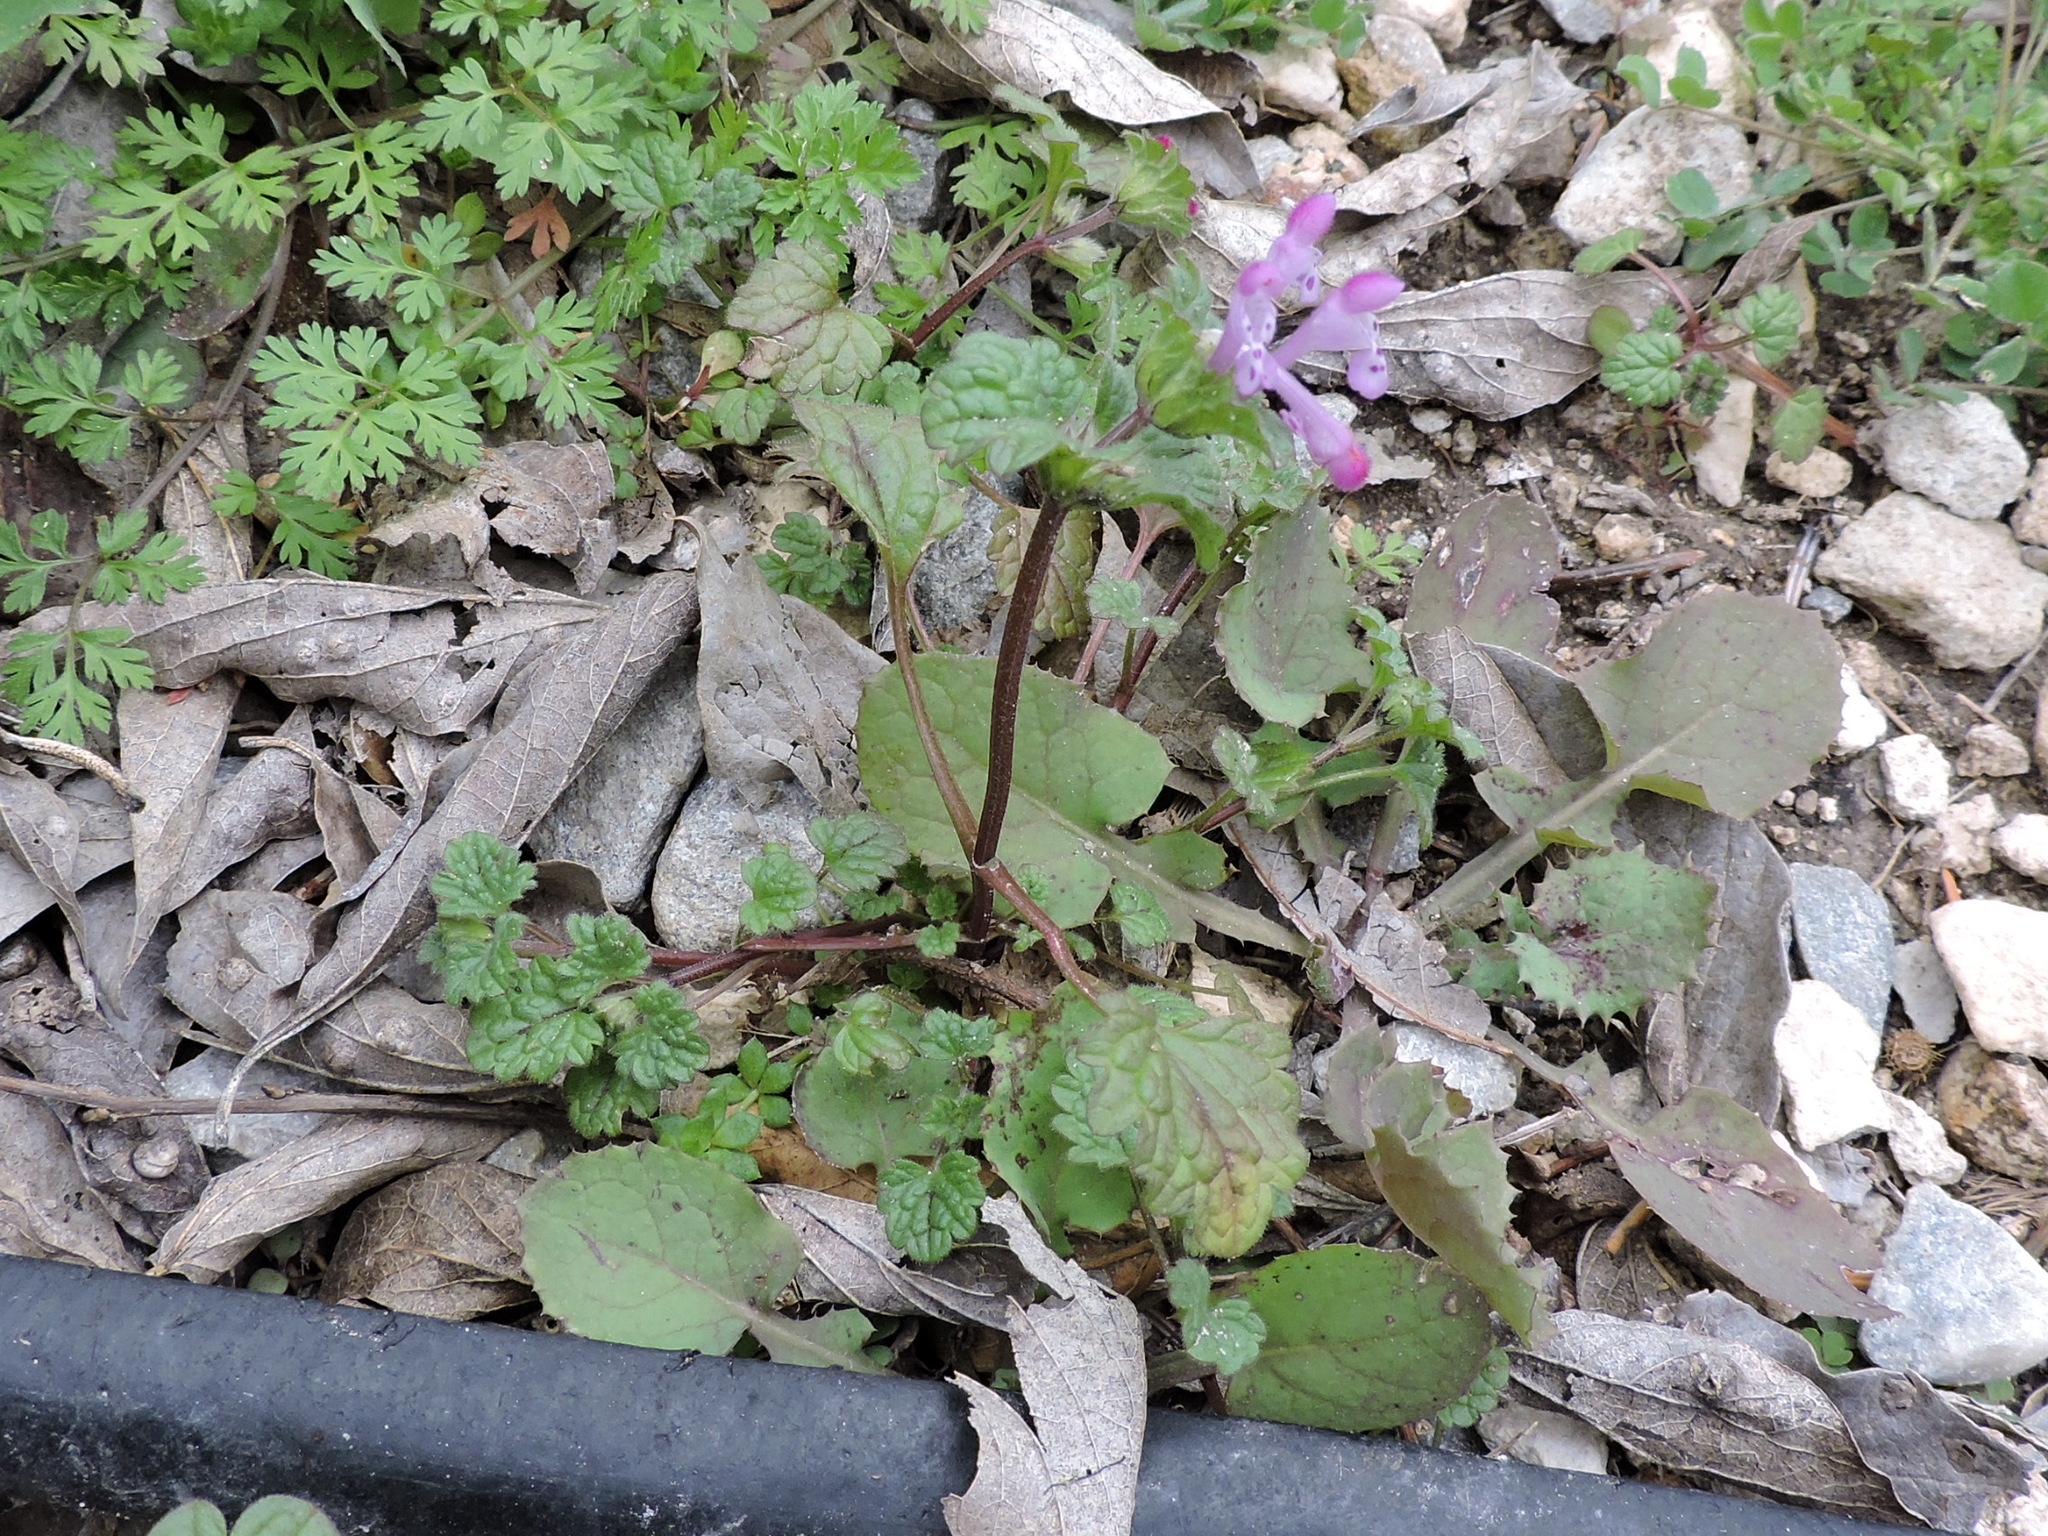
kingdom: Plantae
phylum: Tracheophyta
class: Magnoliopsida
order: Lamiales
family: Lamiaceae
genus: Lamium
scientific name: Lamium amplexicaule
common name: Henbit dead-nettle
